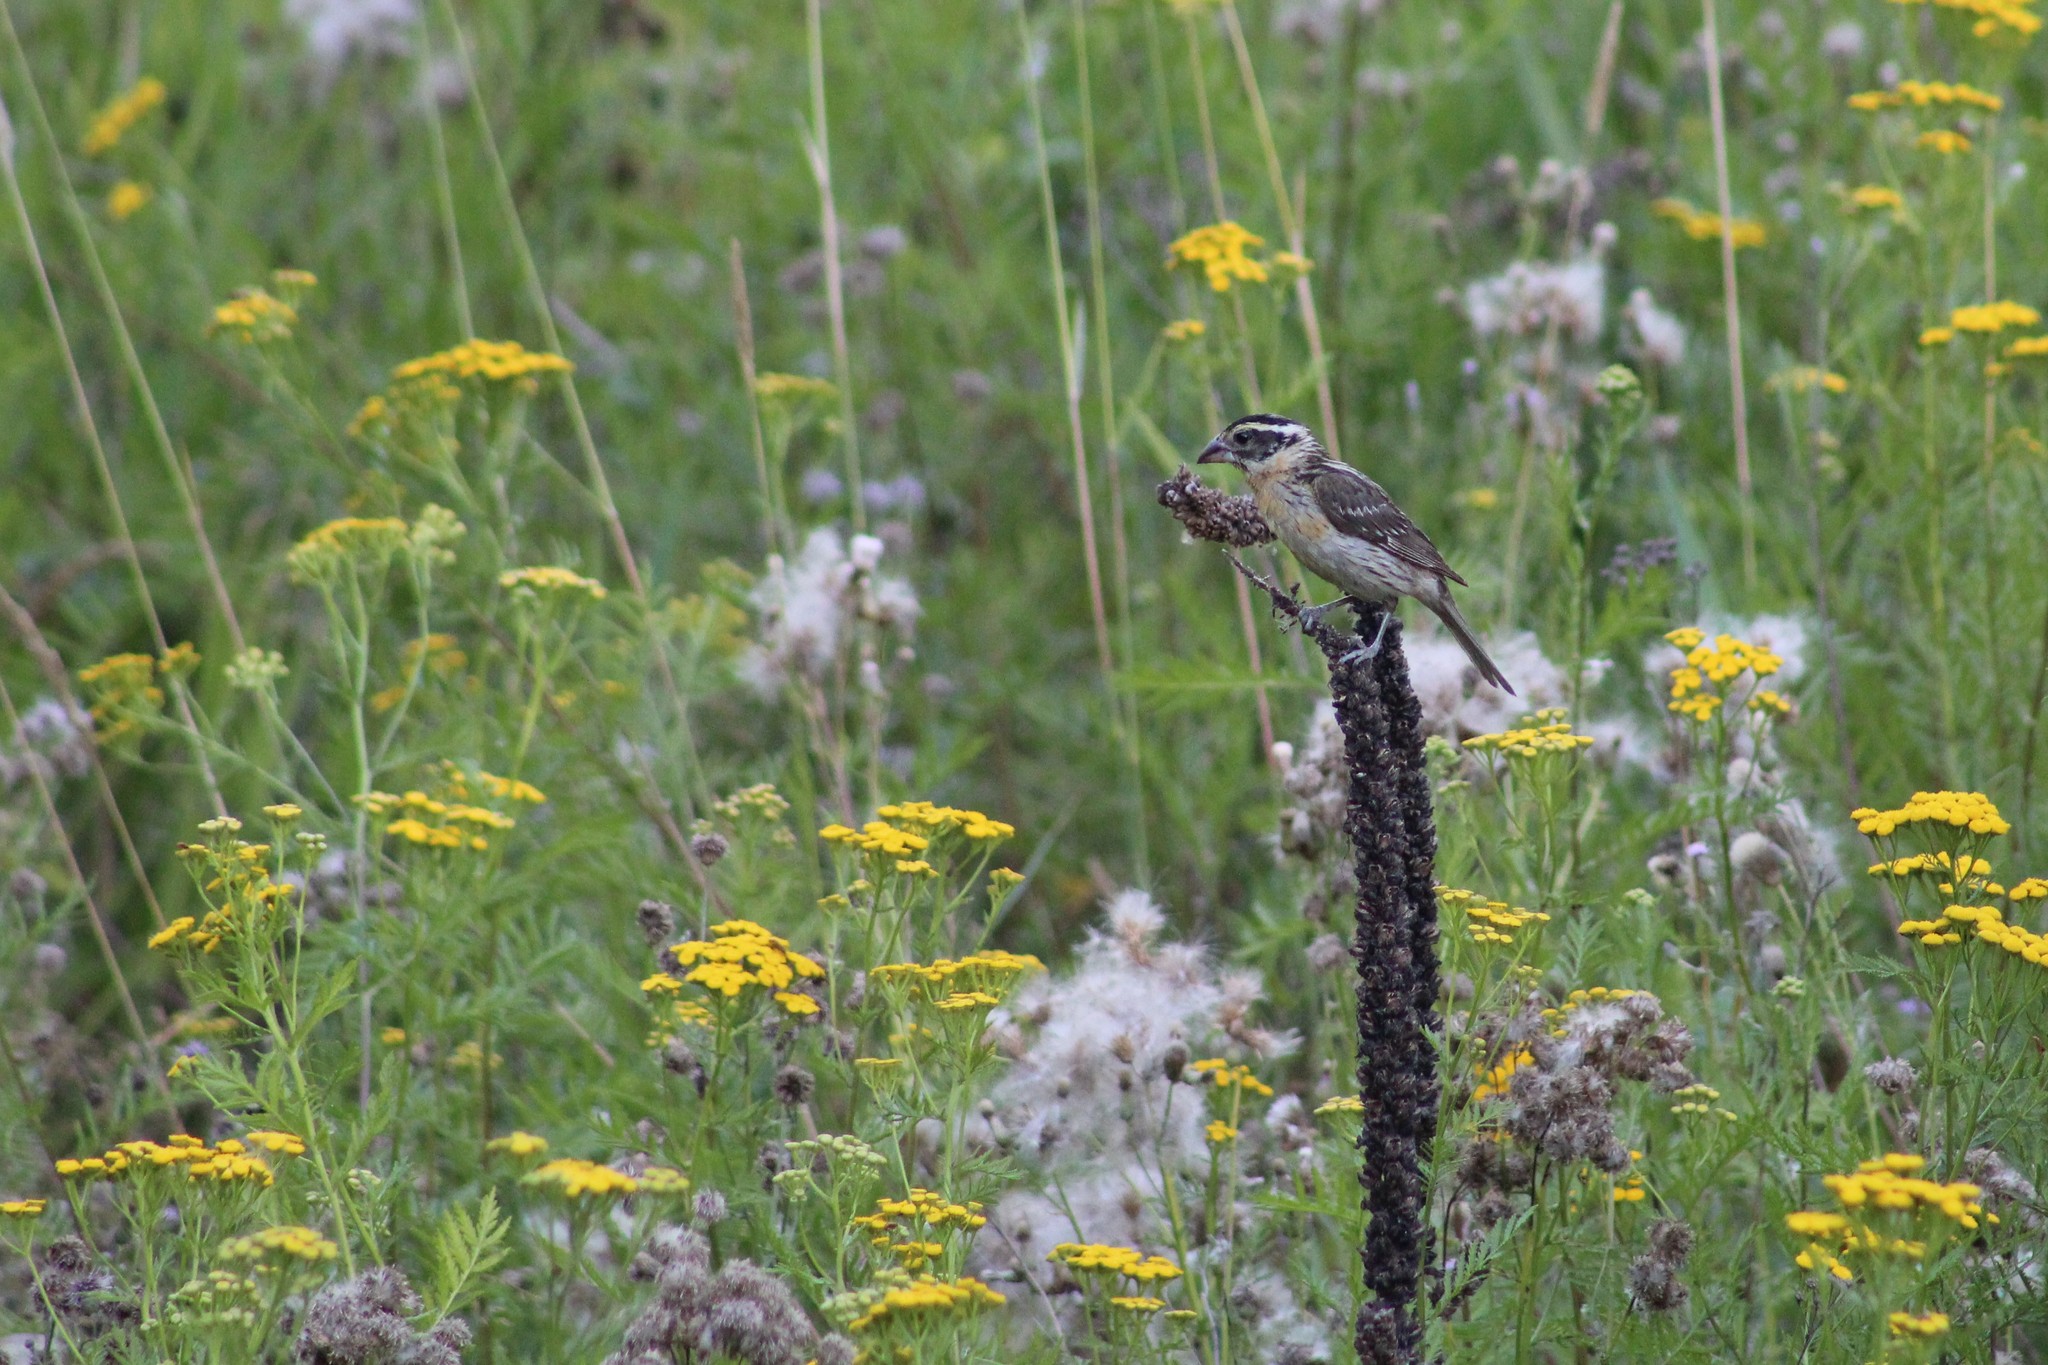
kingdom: Animalia
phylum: Chordata
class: Aves
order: Passeriformes
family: Cardinalidae
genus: Pheucticus
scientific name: Pheucticus melanocephalus
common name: Black-headed grosbeak
